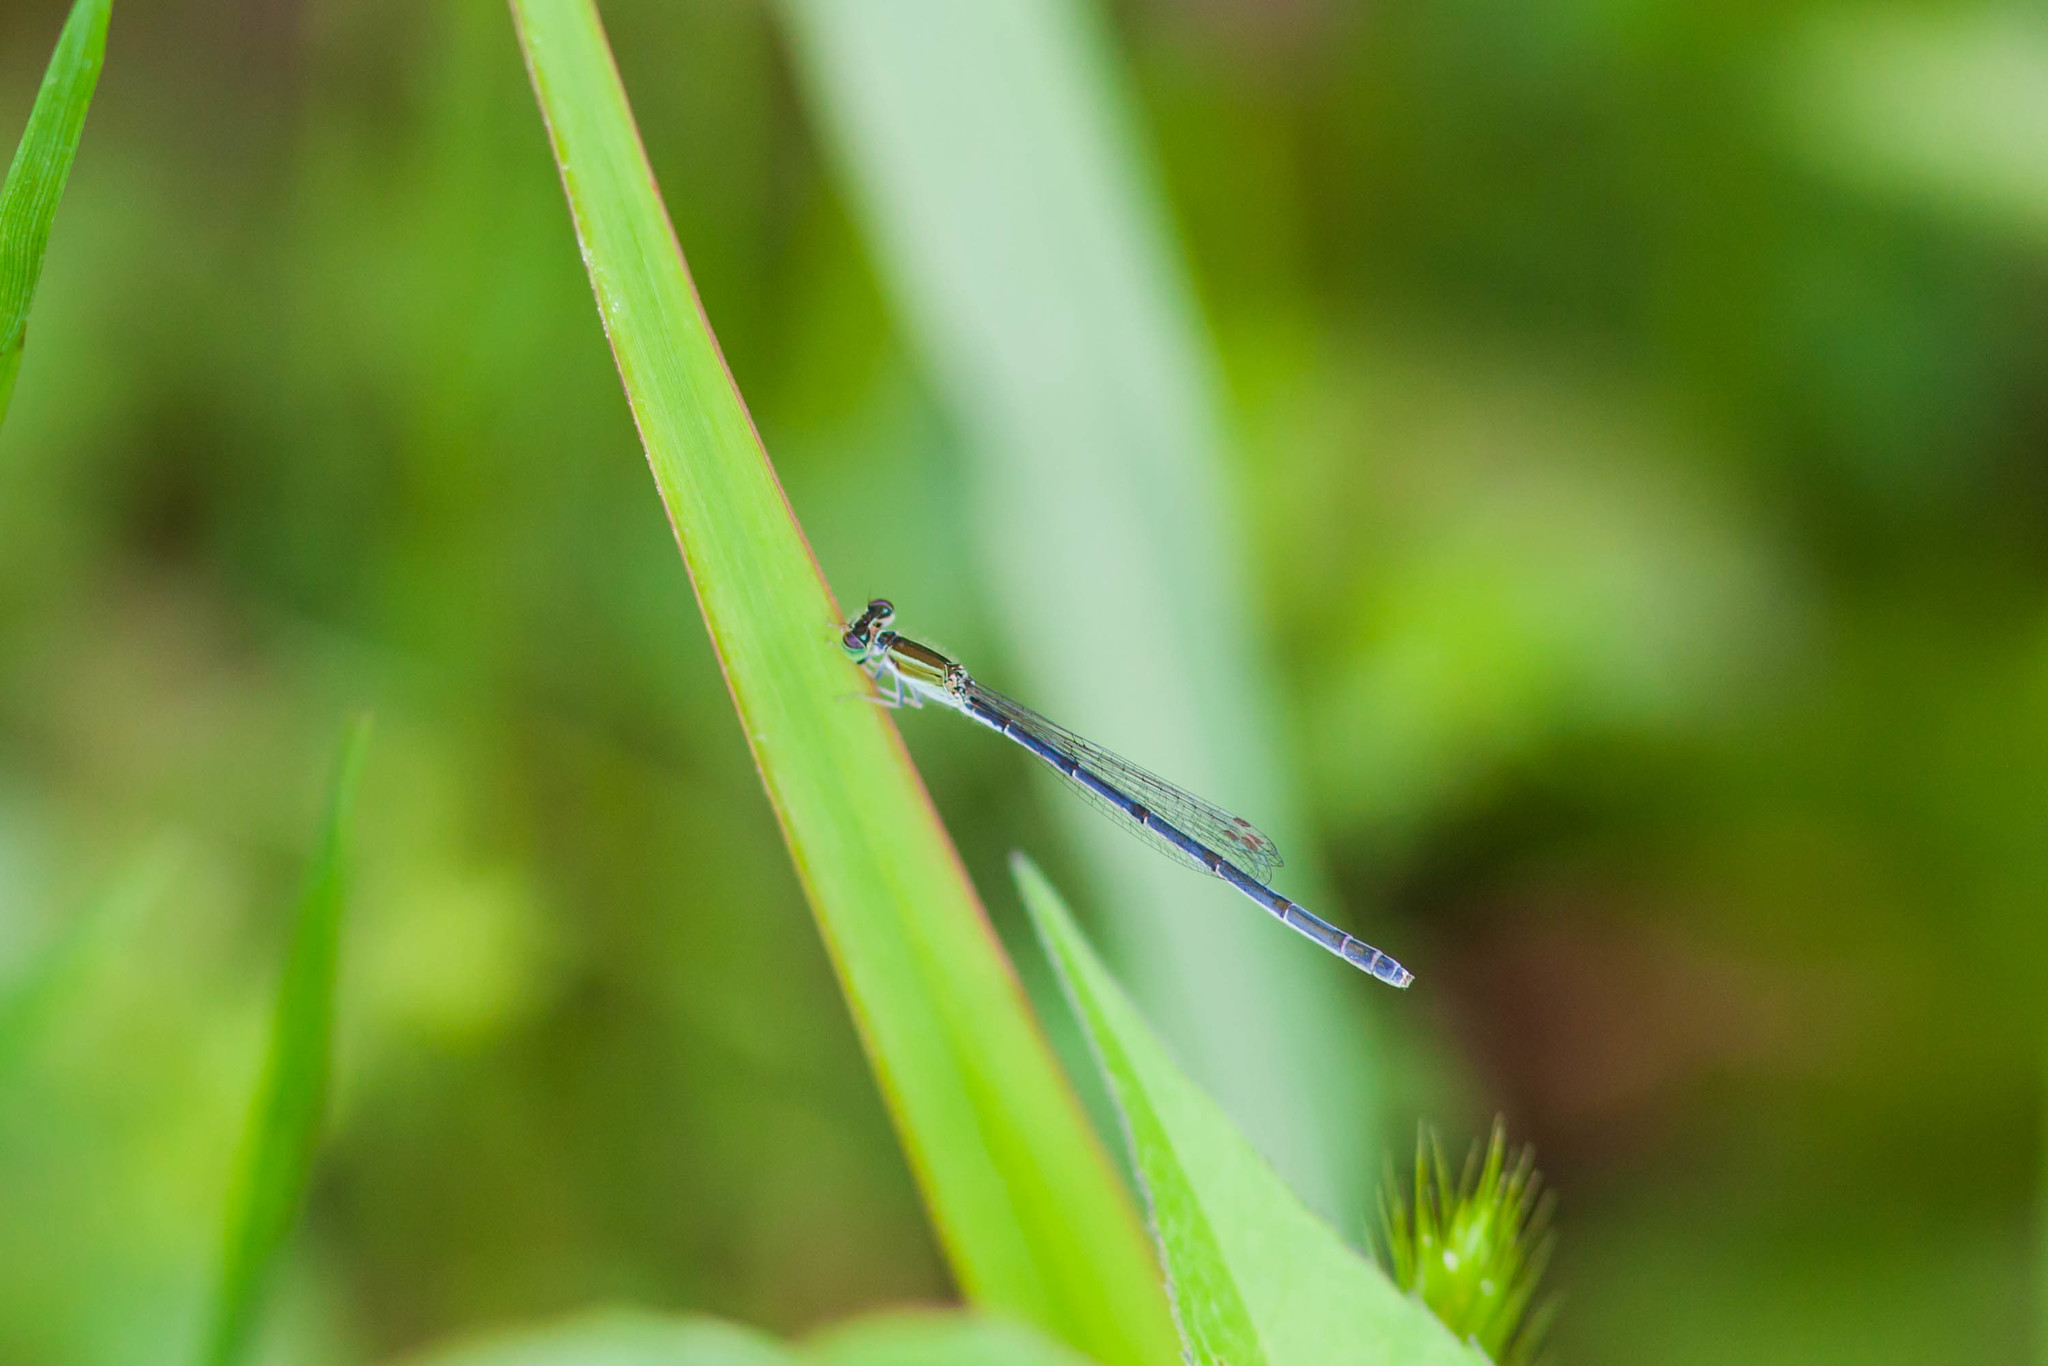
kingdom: Animalia
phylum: Arthropoda
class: Insecta
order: Odonata
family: Coenagrionidae
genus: Ischnura
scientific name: Ischnura hastata
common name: Citrine forktail
